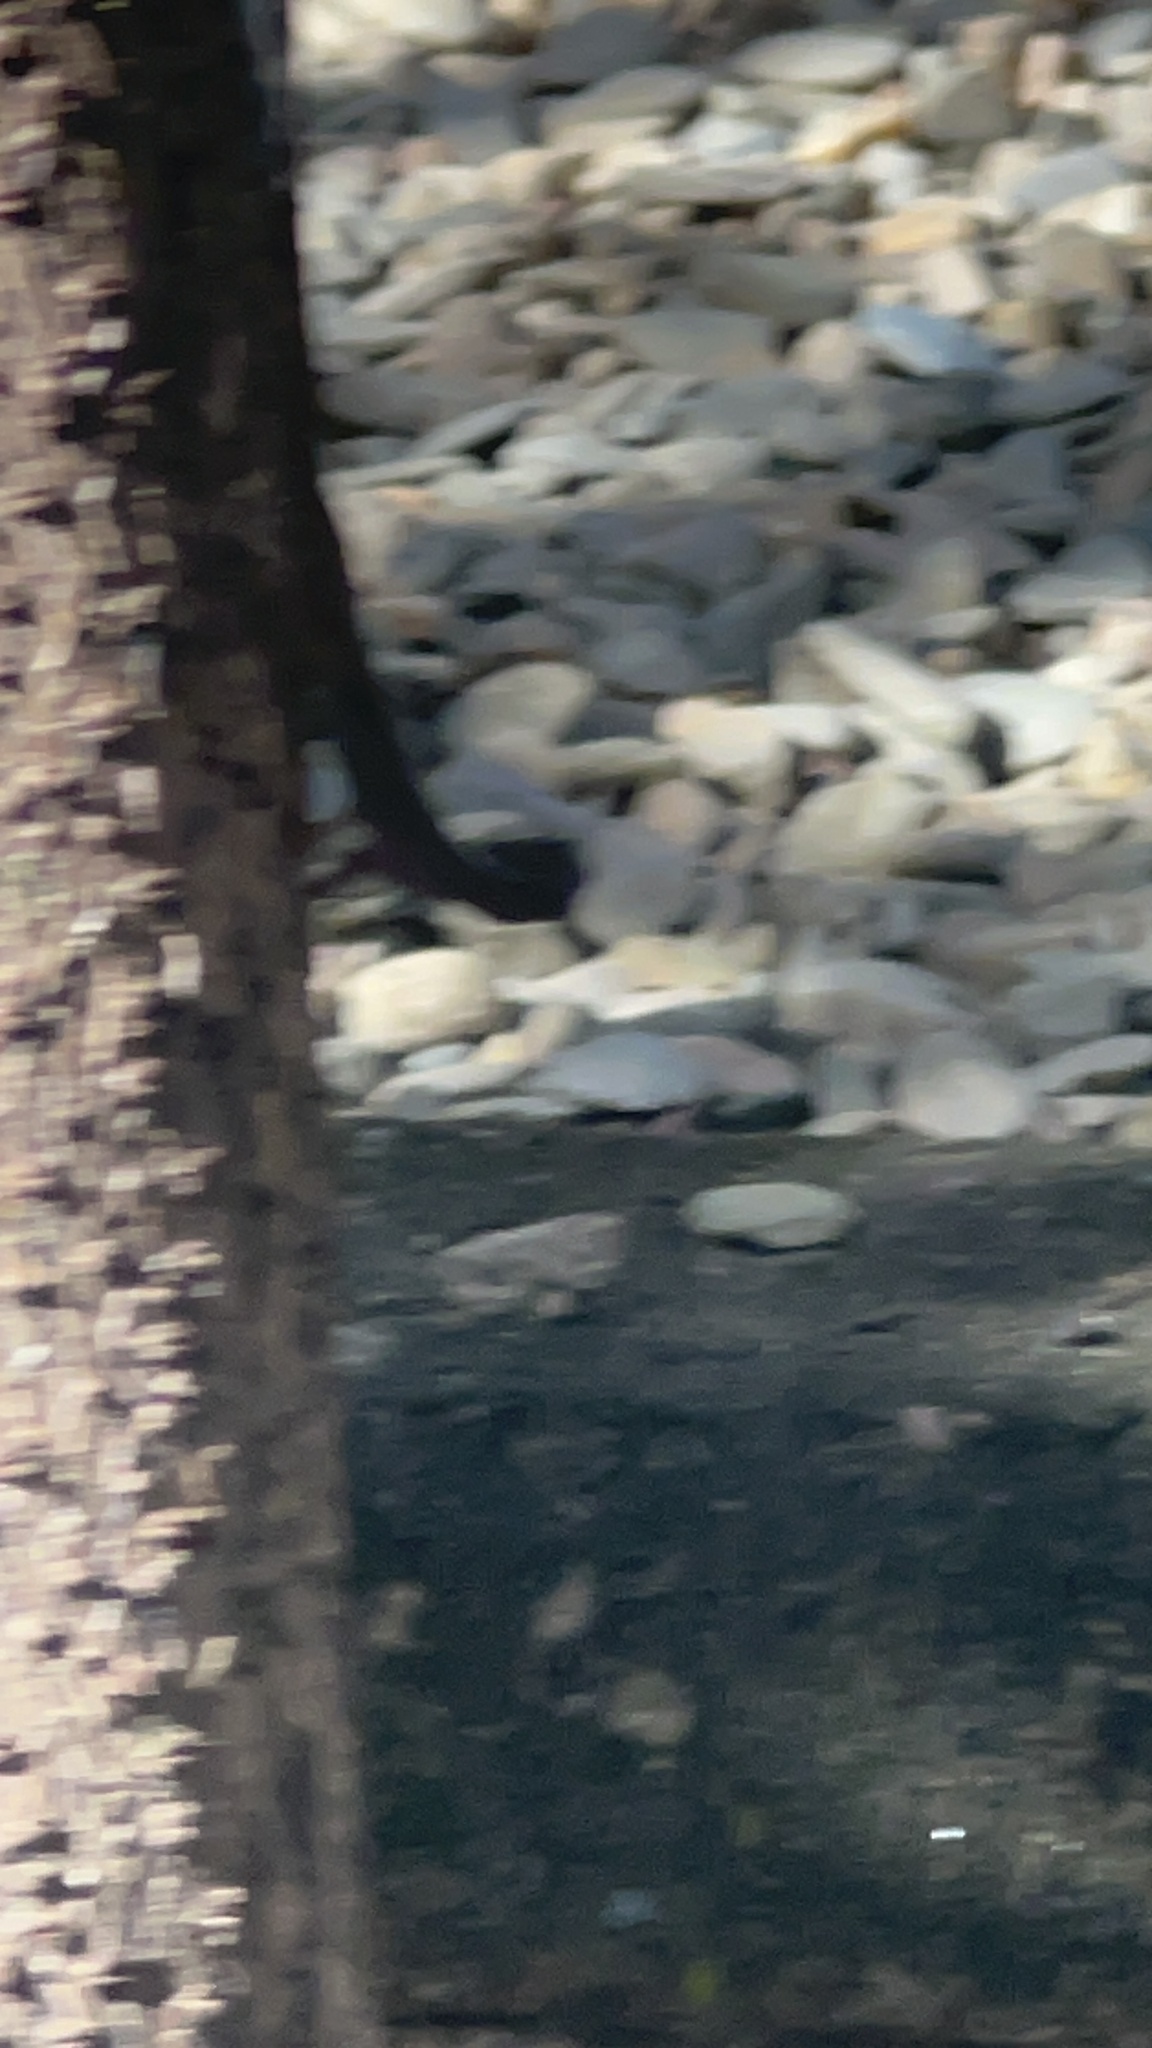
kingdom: Animalia
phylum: Chordata
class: Squamata
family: Dactyloidae
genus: Anolis
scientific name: Anolis sagrei
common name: Brown anole
